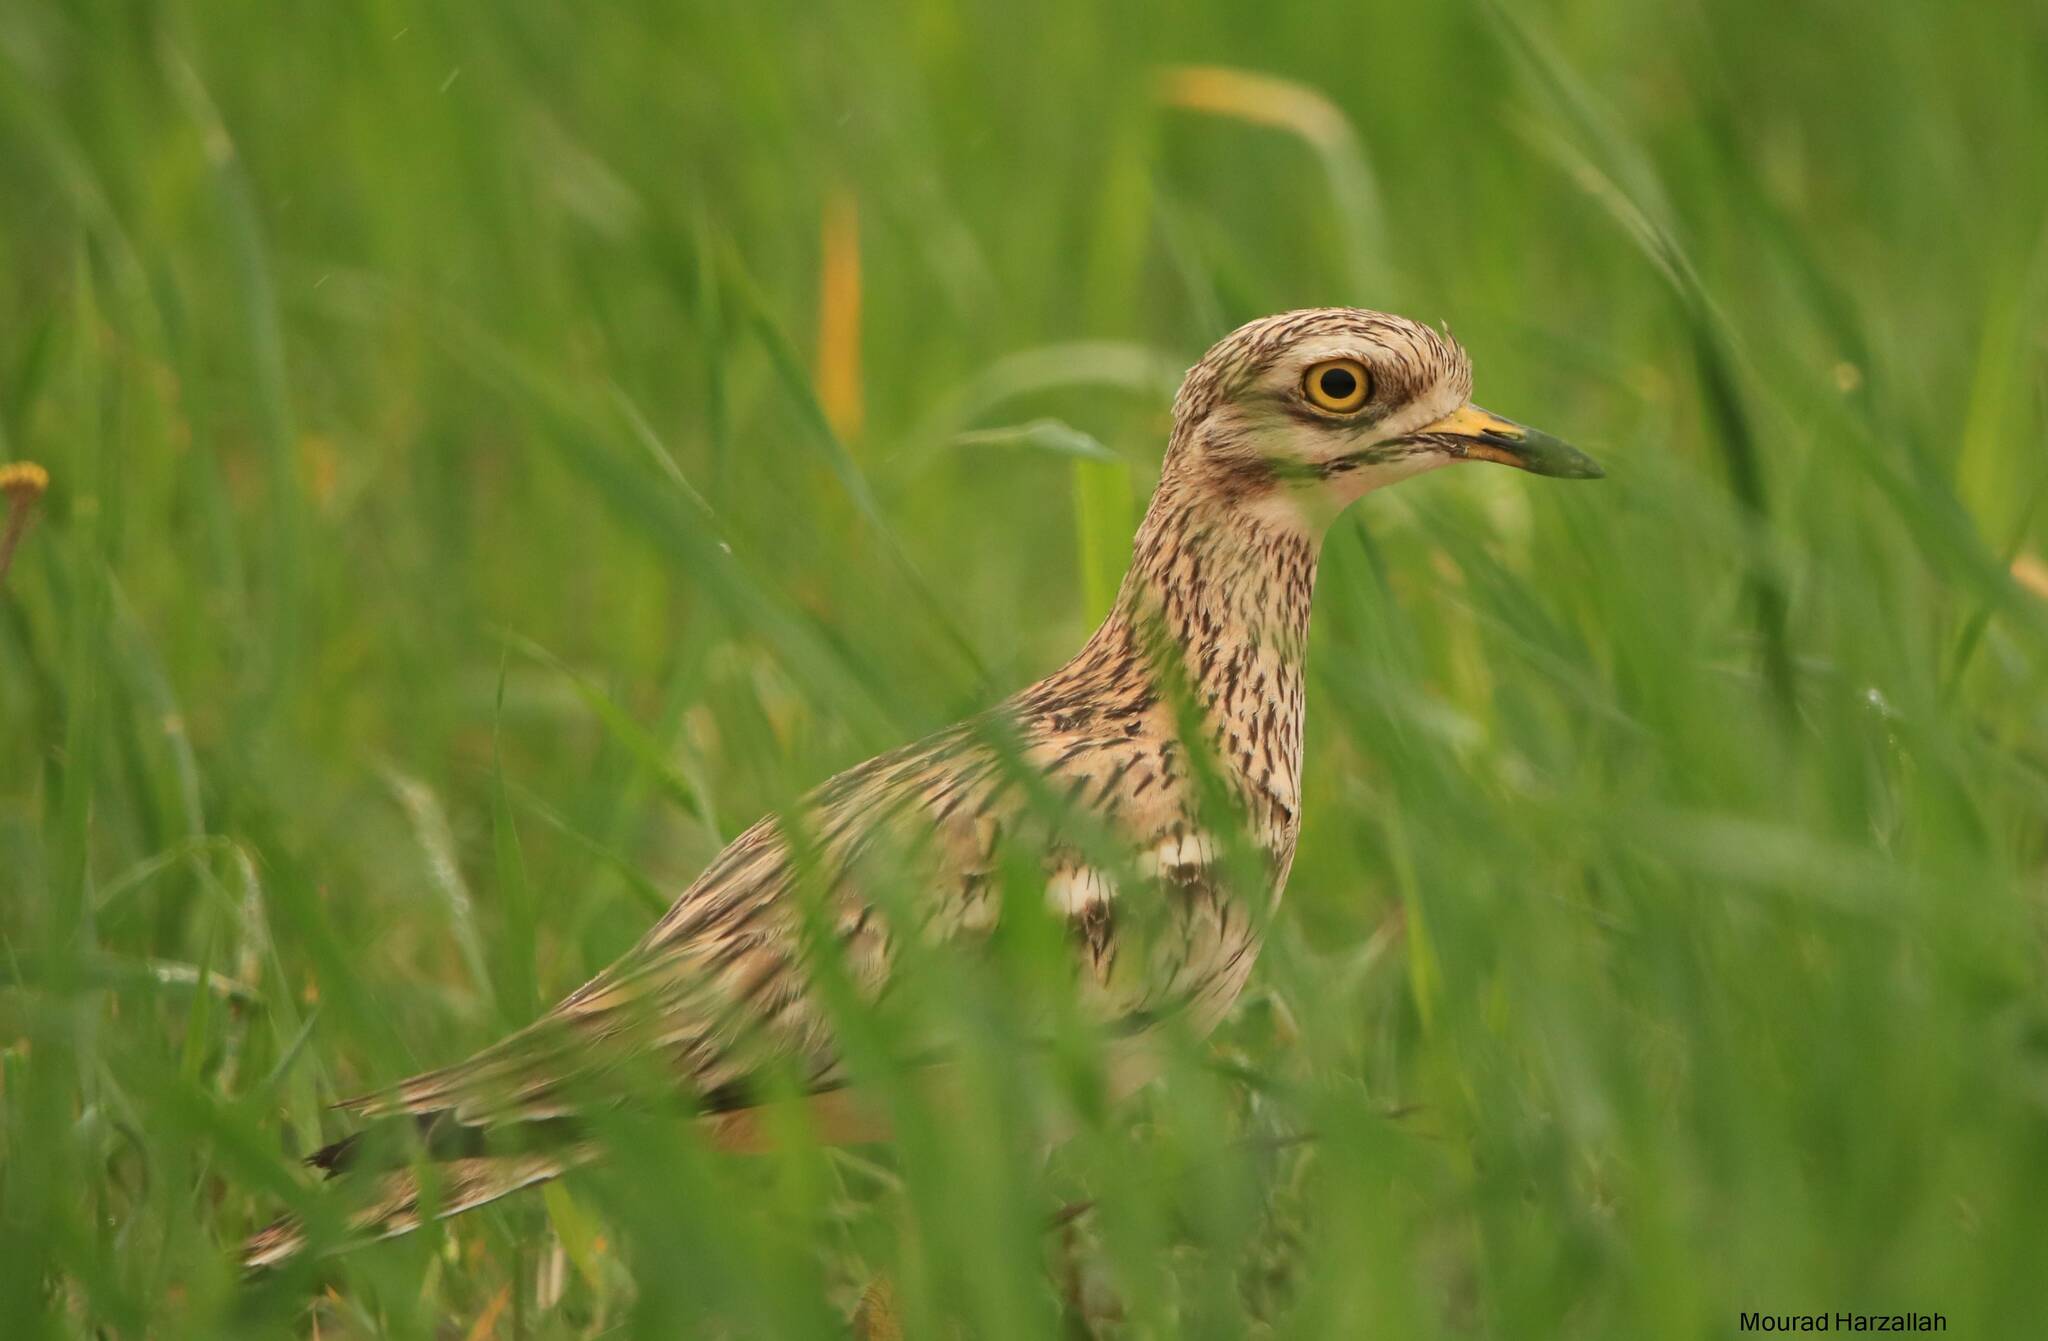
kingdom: Animalia
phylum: Chordata
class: Aves
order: Charadriiformes
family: Burhinidae
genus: Burhinus
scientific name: Burhinus oedicnemus
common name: Eurasian stone-curlew
